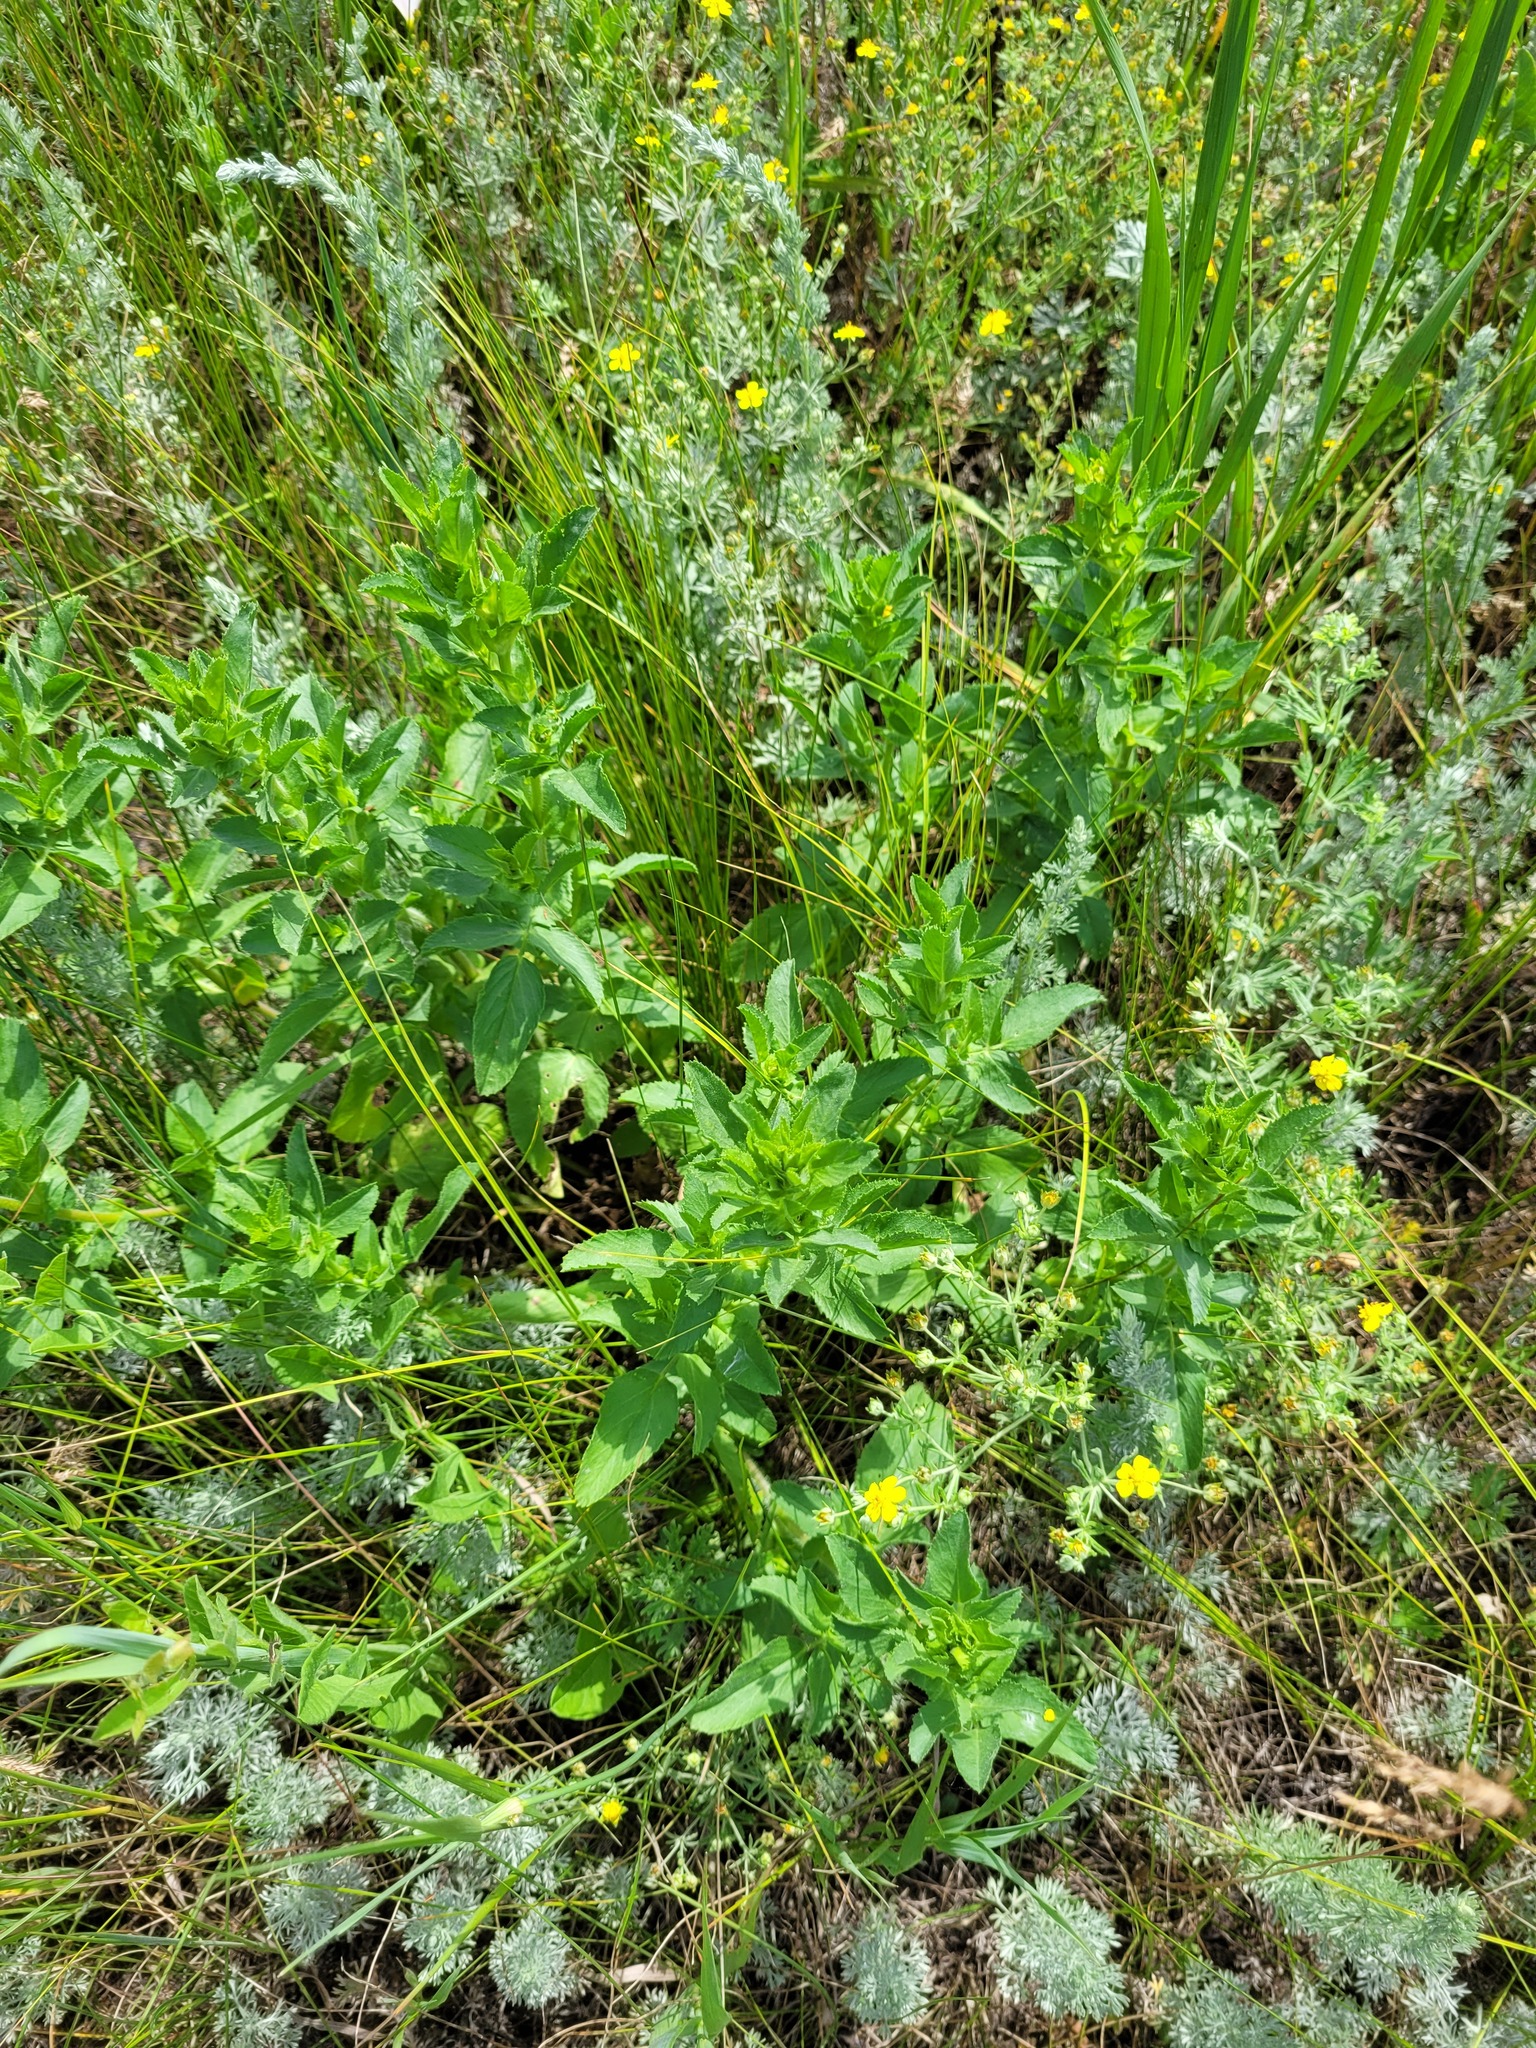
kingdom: Plantae
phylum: Tracheophyta
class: Magnoliopsida
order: Fabales
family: Fabaceae
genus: Ononis
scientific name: Ononis arvensis
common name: Field restharrow
